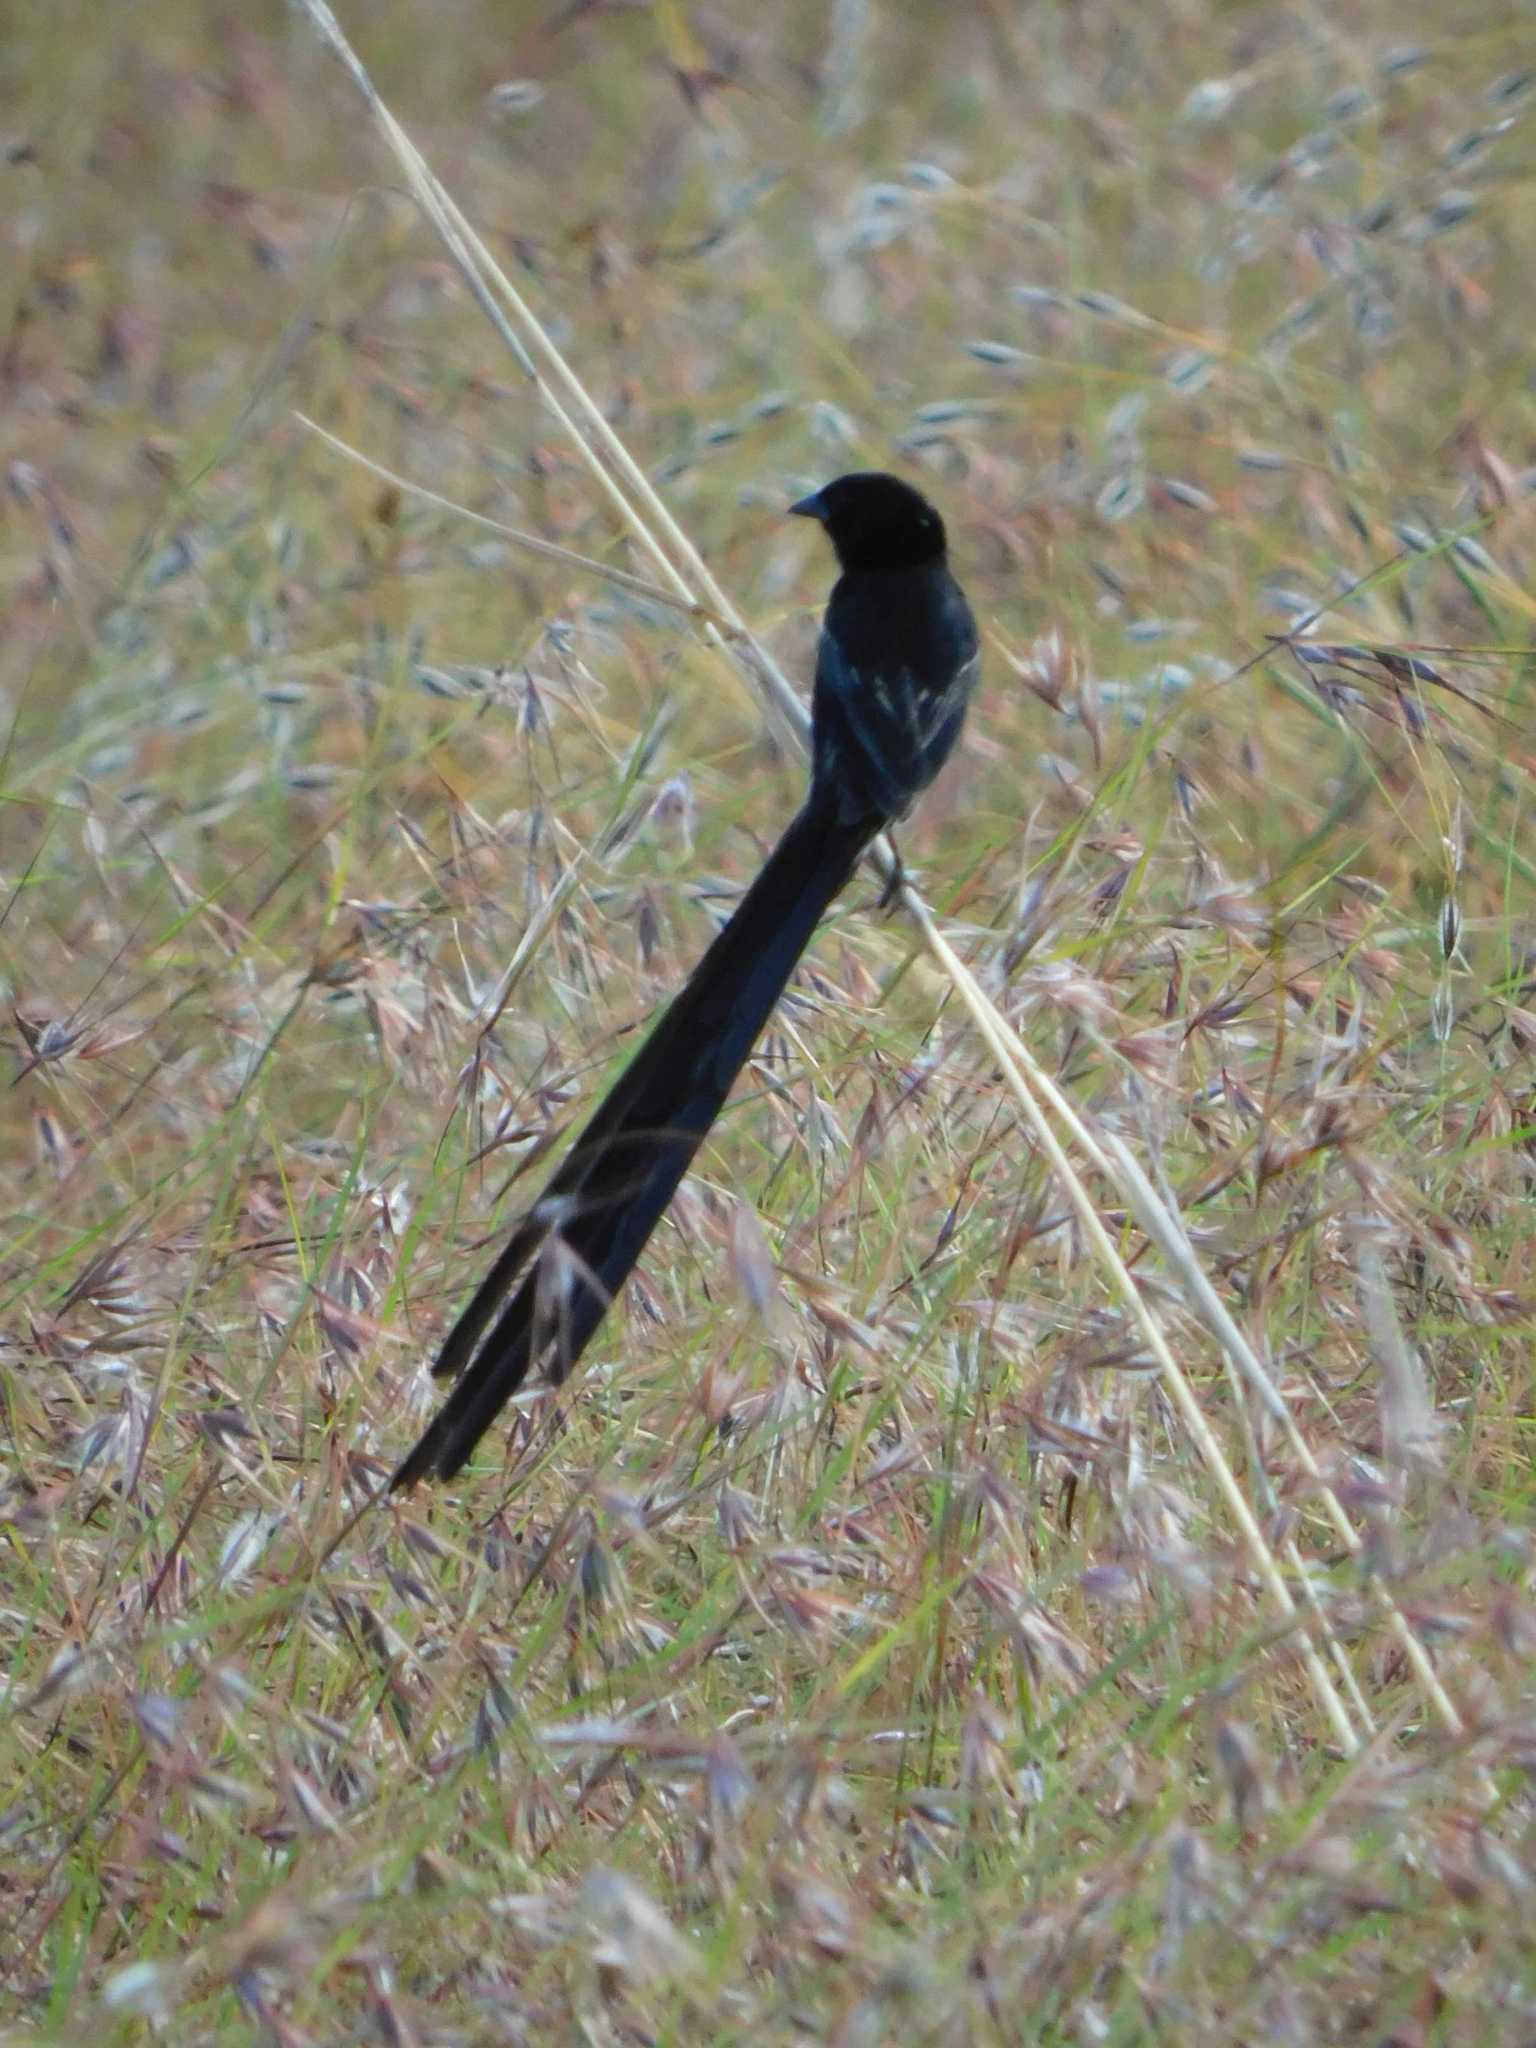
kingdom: Animalia
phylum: Chordata
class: Aves
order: Passeriformes
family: Ploceidae
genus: Euplectes
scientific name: Euplectes ardens
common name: Red-collared widowbird
